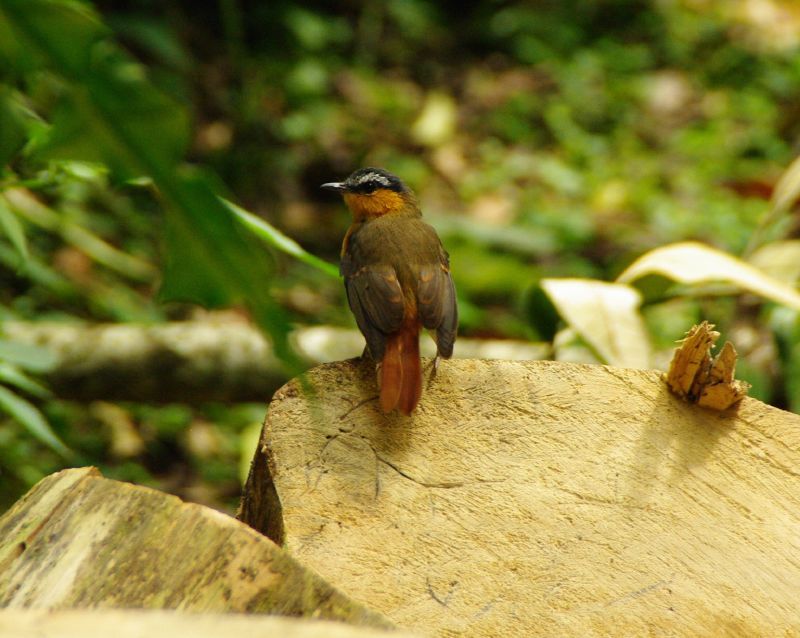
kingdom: Animalia
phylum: Chordata
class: Aves
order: Passeriformes
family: Muscicapidae
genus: Cossypha
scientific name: Cossypha polioptera
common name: Grey-winged robin-chat
